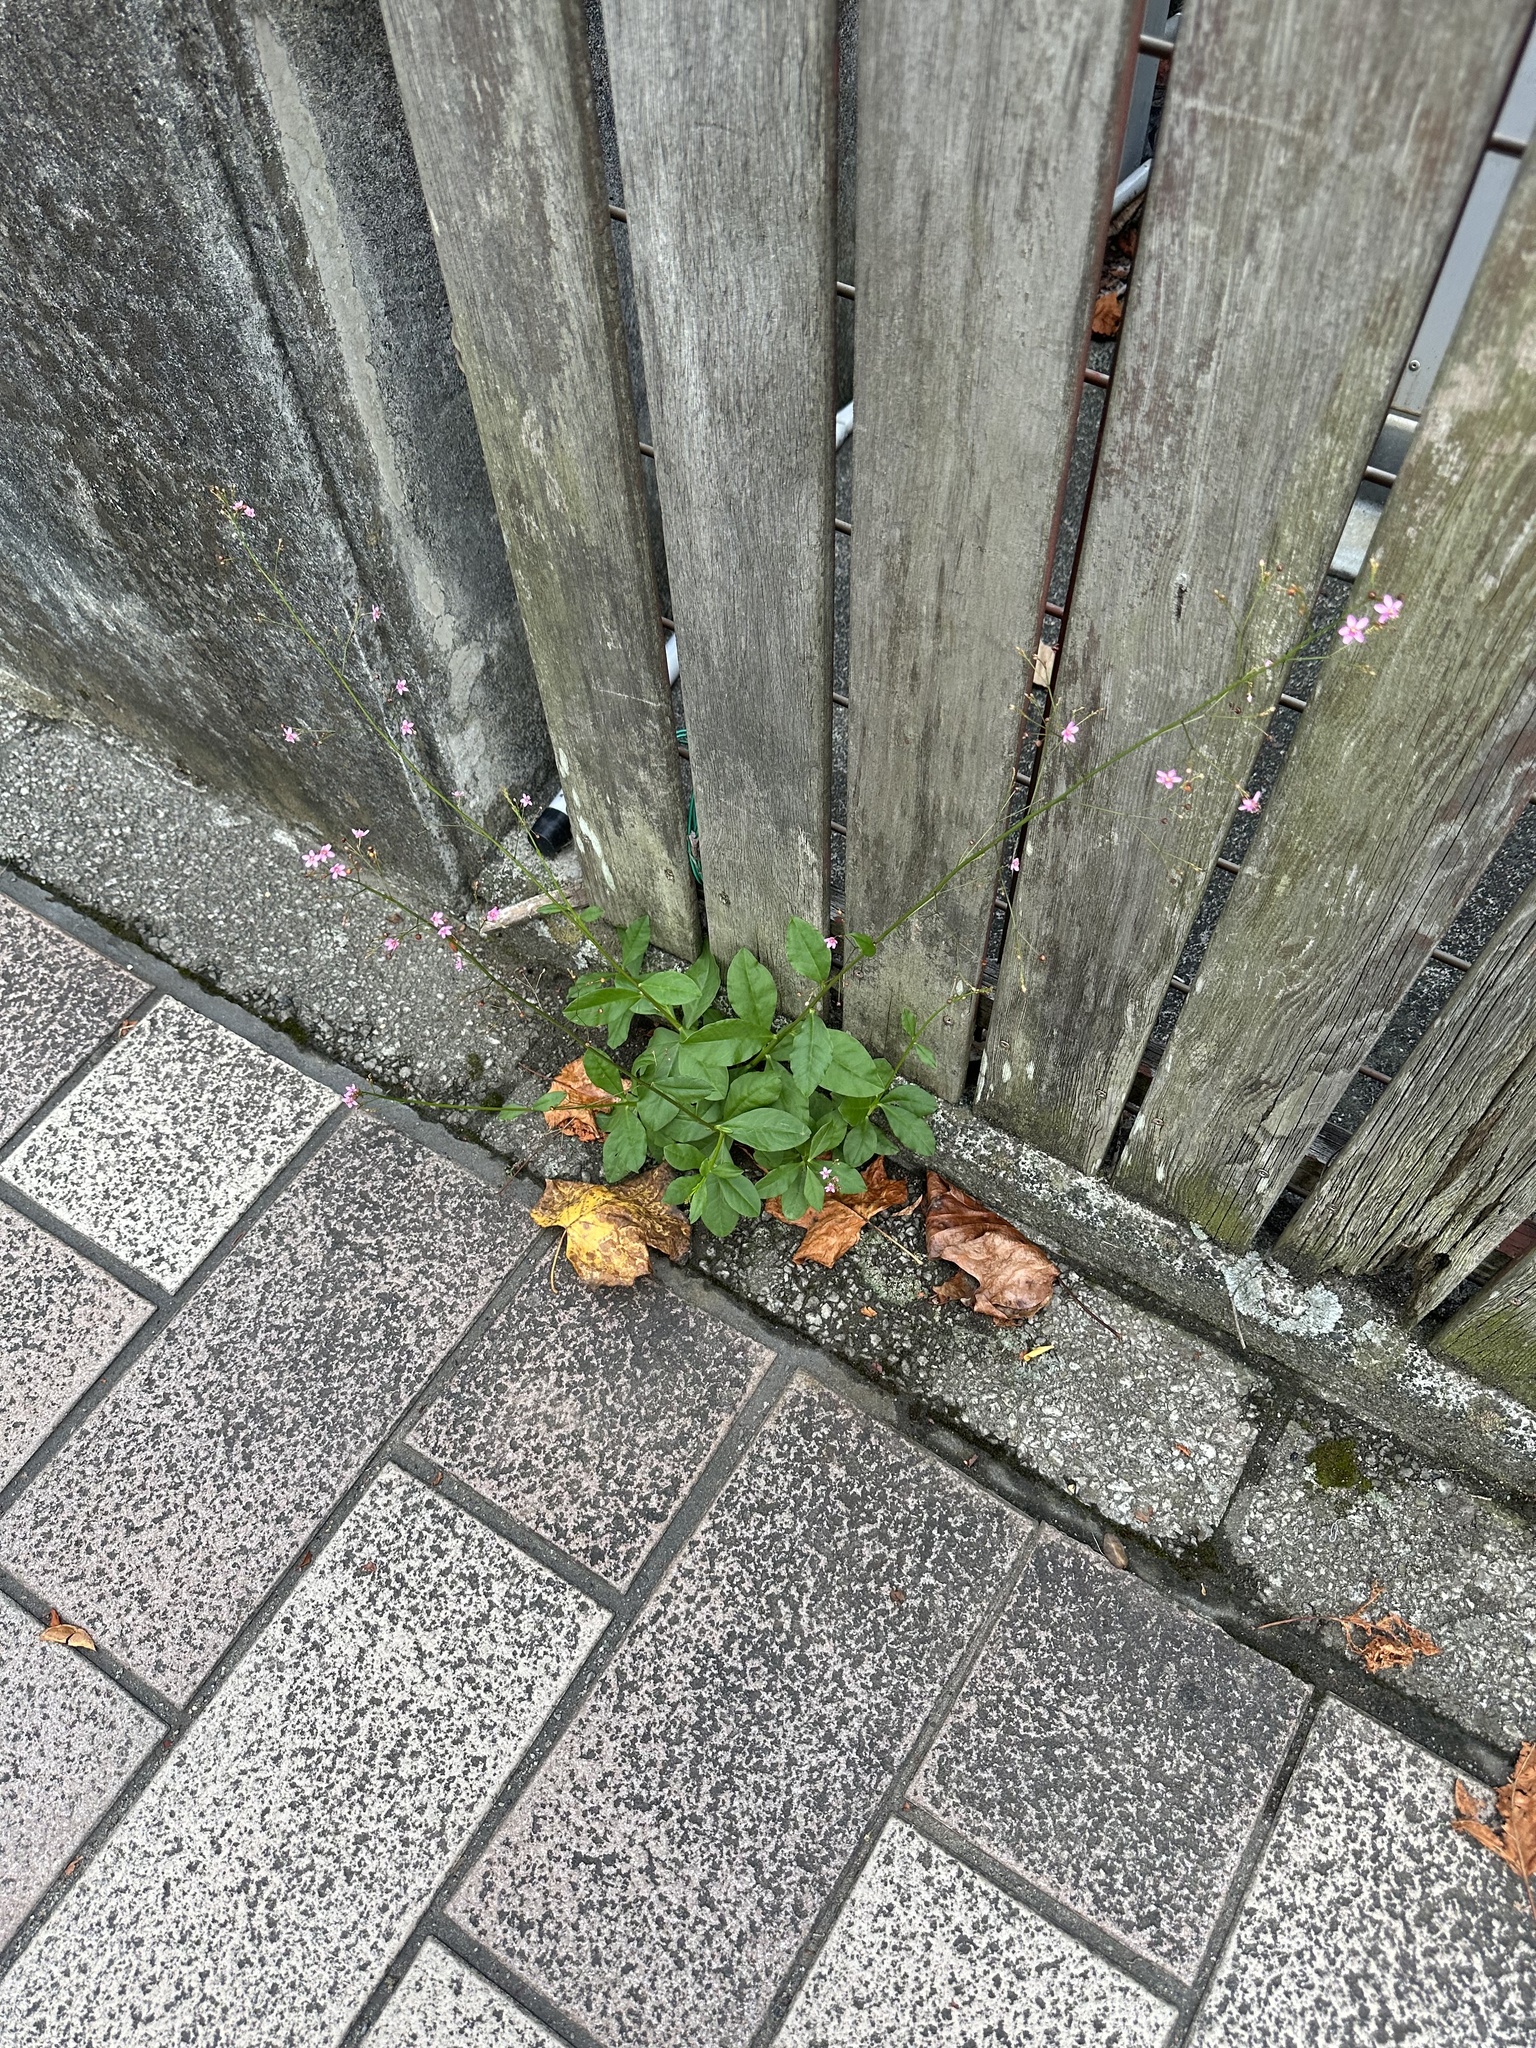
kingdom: Plantae
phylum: Tracheophyta
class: Magnoliopsida
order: Caryophyllales
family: Talinaceae
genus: Talinum
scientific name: Talinum paniculatum
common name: Jewels of opar
